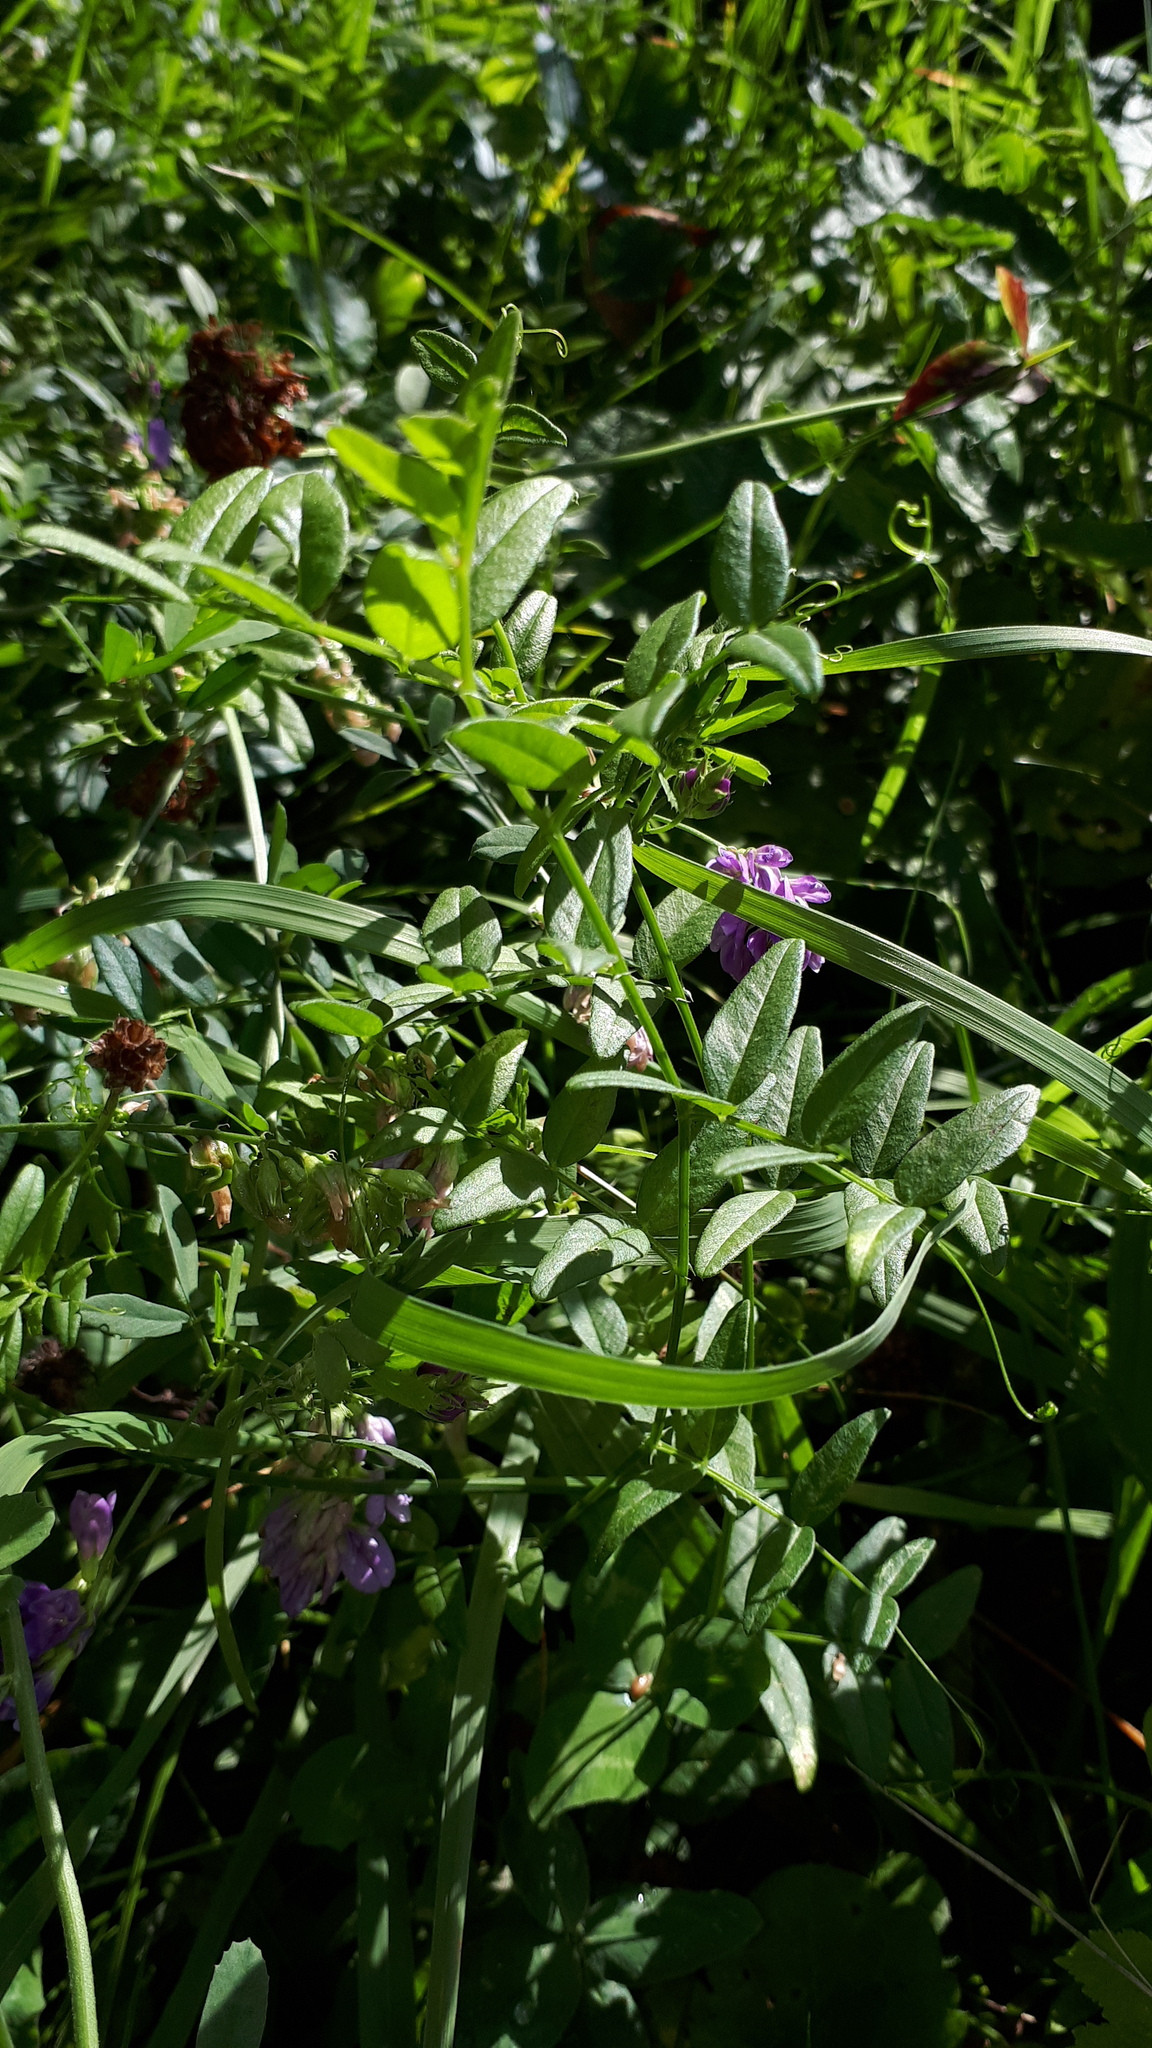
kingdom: Plantae
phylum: Tracheophyta
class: Magnoliopsida
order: Fabales
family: Fabaceae
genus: Vicia
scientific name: Vicia sepium
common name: Bush vetch
